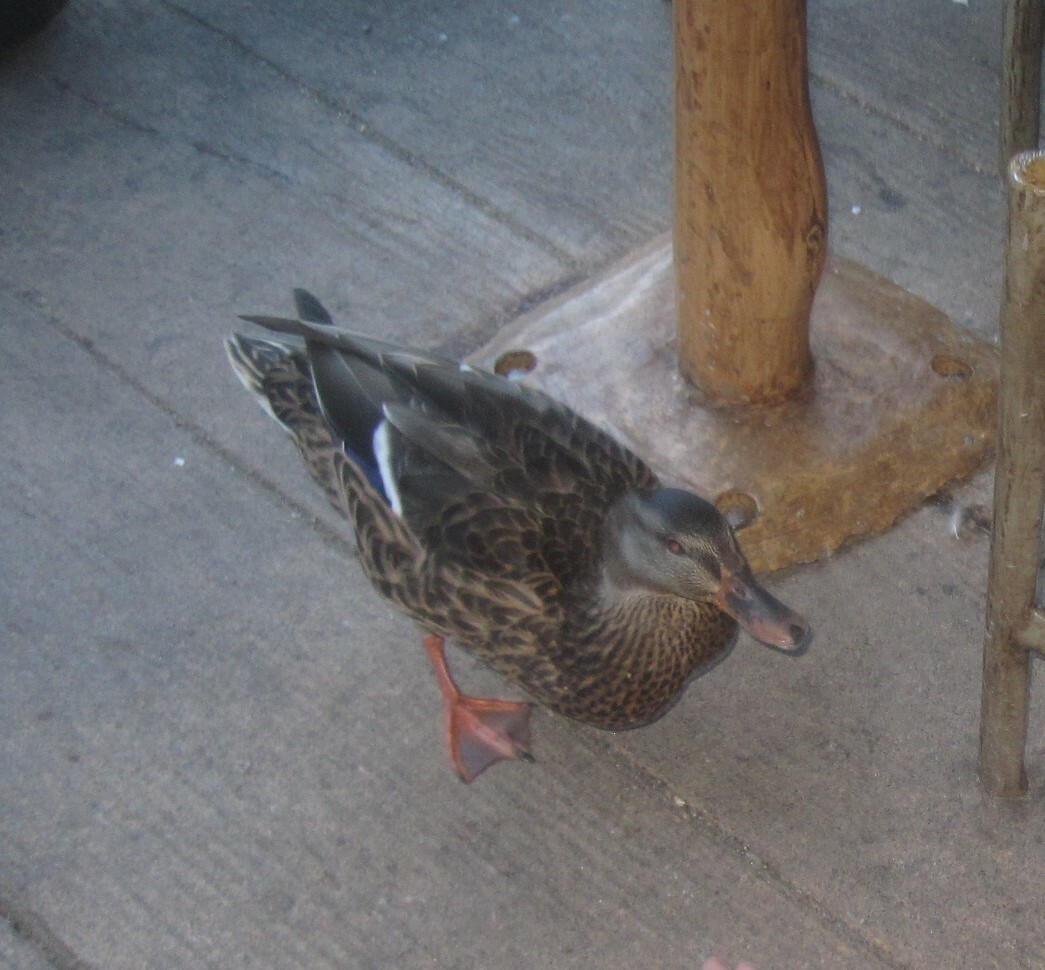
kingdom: Animalia
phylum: Chordata
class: Aves
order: Anseriformes
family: Anatidae
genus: Anas
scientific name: Anas platyrhynchos
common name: Mallard
